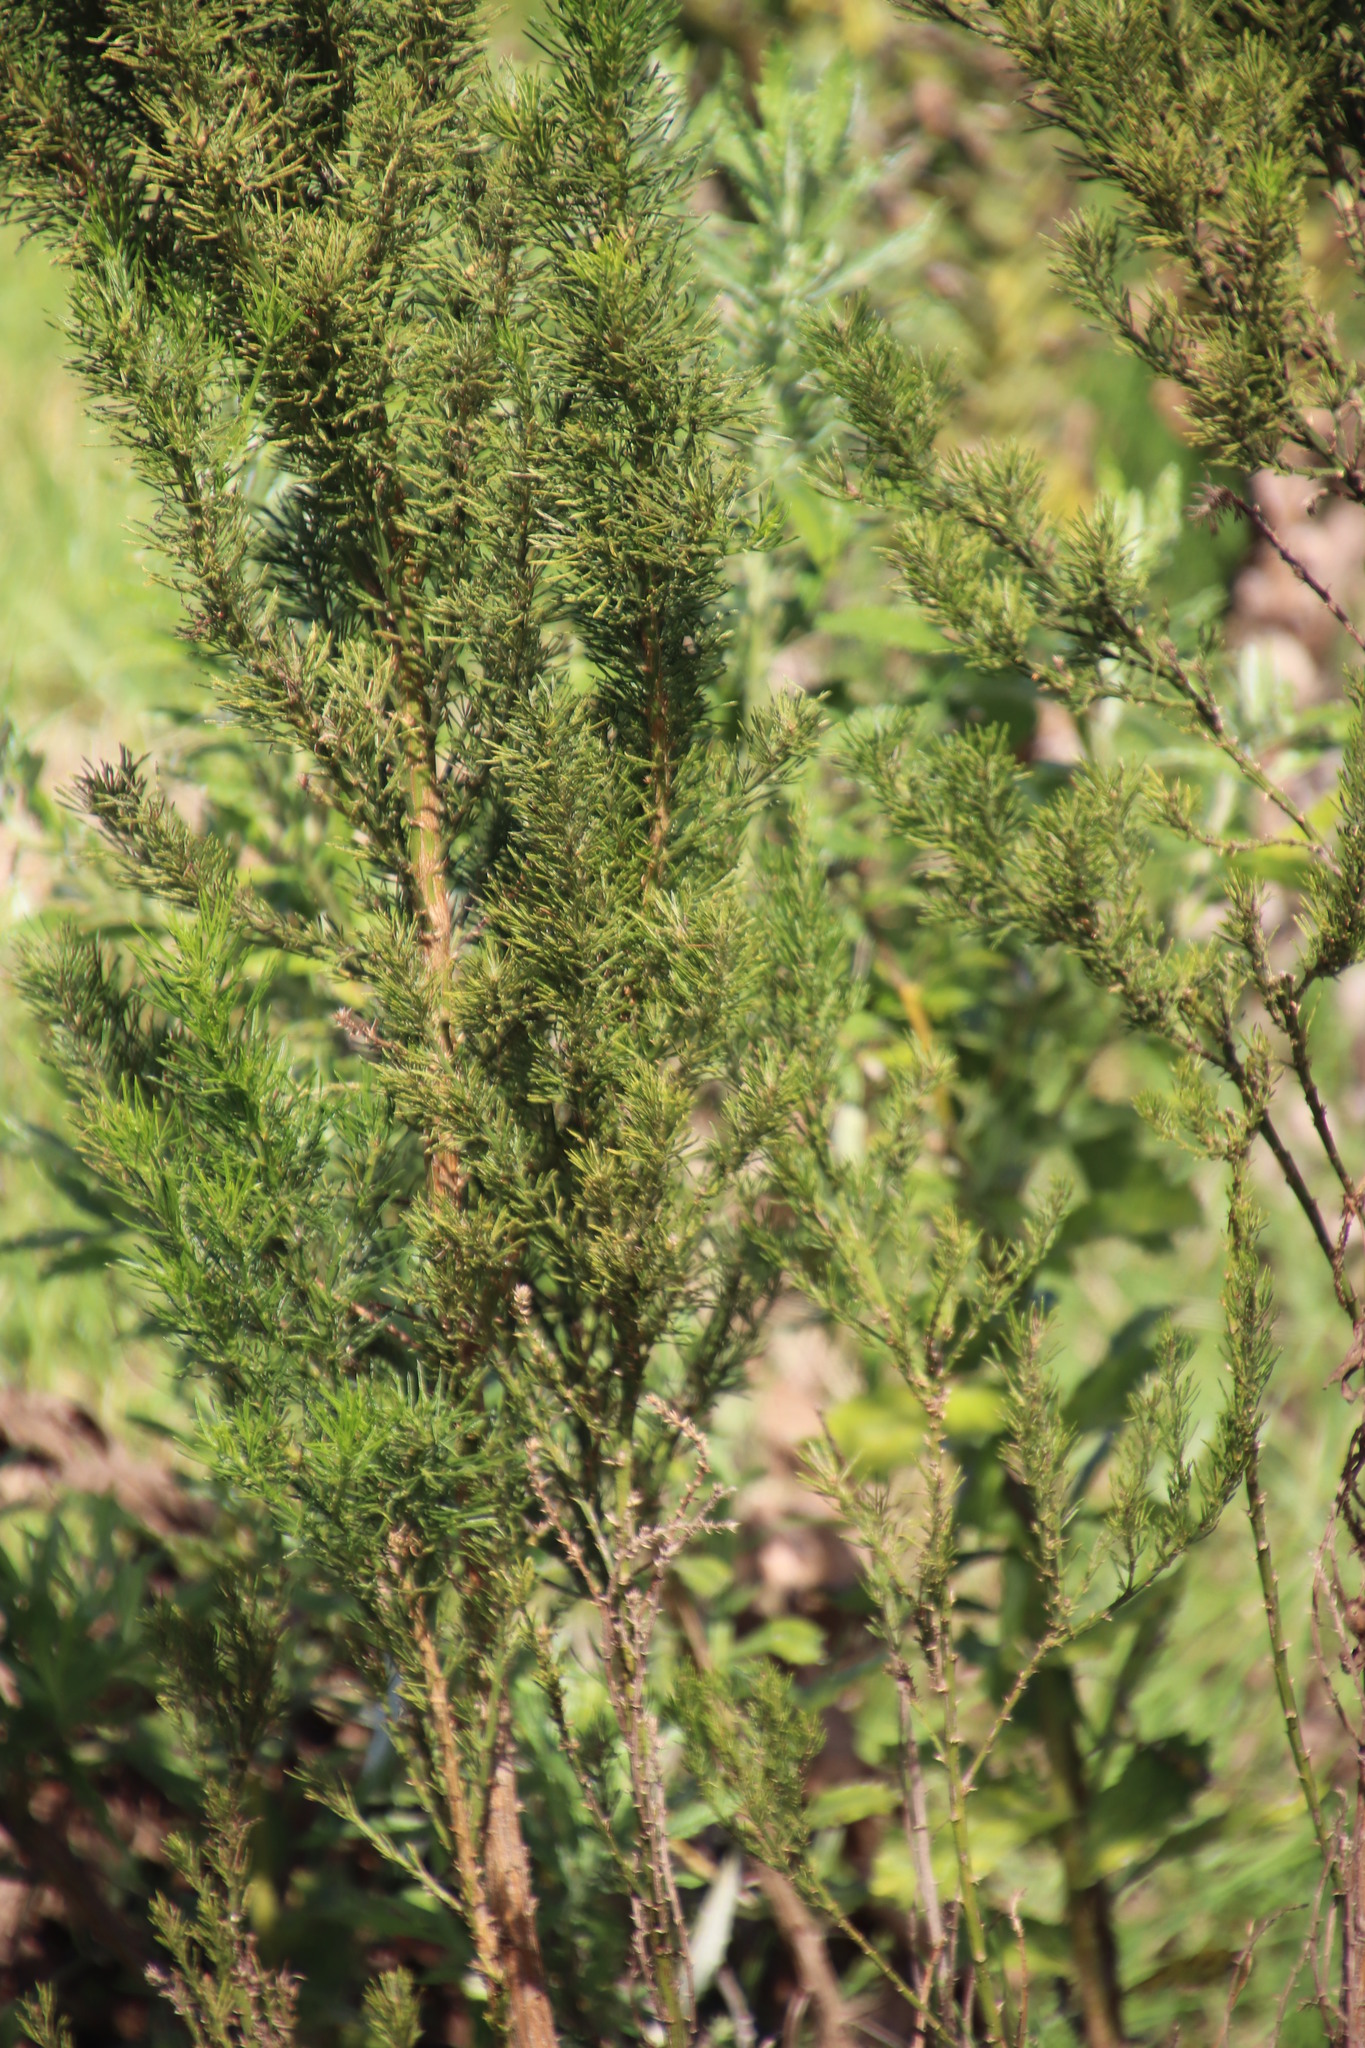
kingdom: Plantae
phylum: Tracheophyta
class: Magnoliopsida
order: Fabales
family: Fabaceae
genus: Psoralea
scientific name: Psoralea pinnata
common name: African scurfpea
